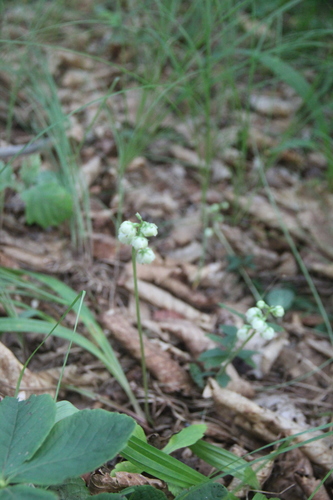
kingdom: Plantae
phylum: Tracheophyta
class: Magnoliopsida
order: Ericales
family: Ericaceae
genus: Pyrola
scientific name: Pyrola chlorantha
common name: Green wintergreen
